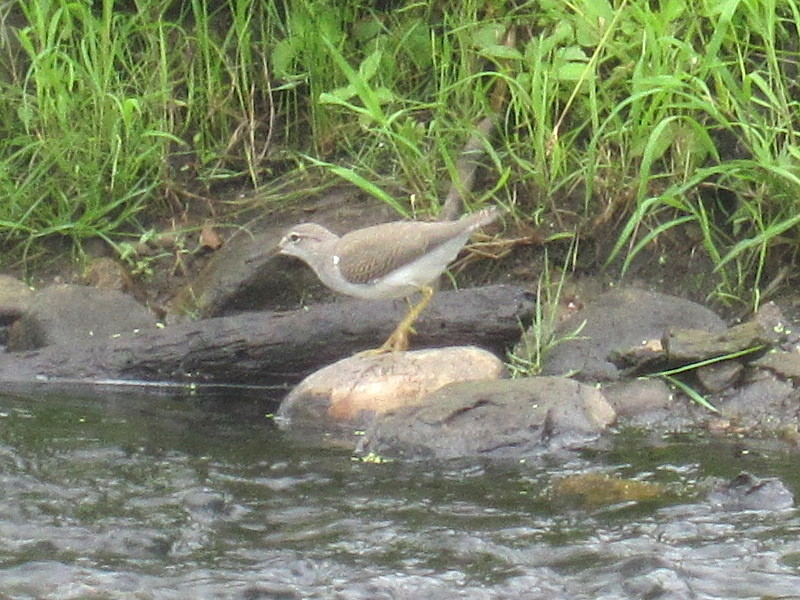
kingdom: Animalia
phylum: Chordata
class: Aves
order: Charadriiformes
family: Scolopacidae
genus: Actitis
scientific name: Actitis macularius
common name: Spotted sandpiper
